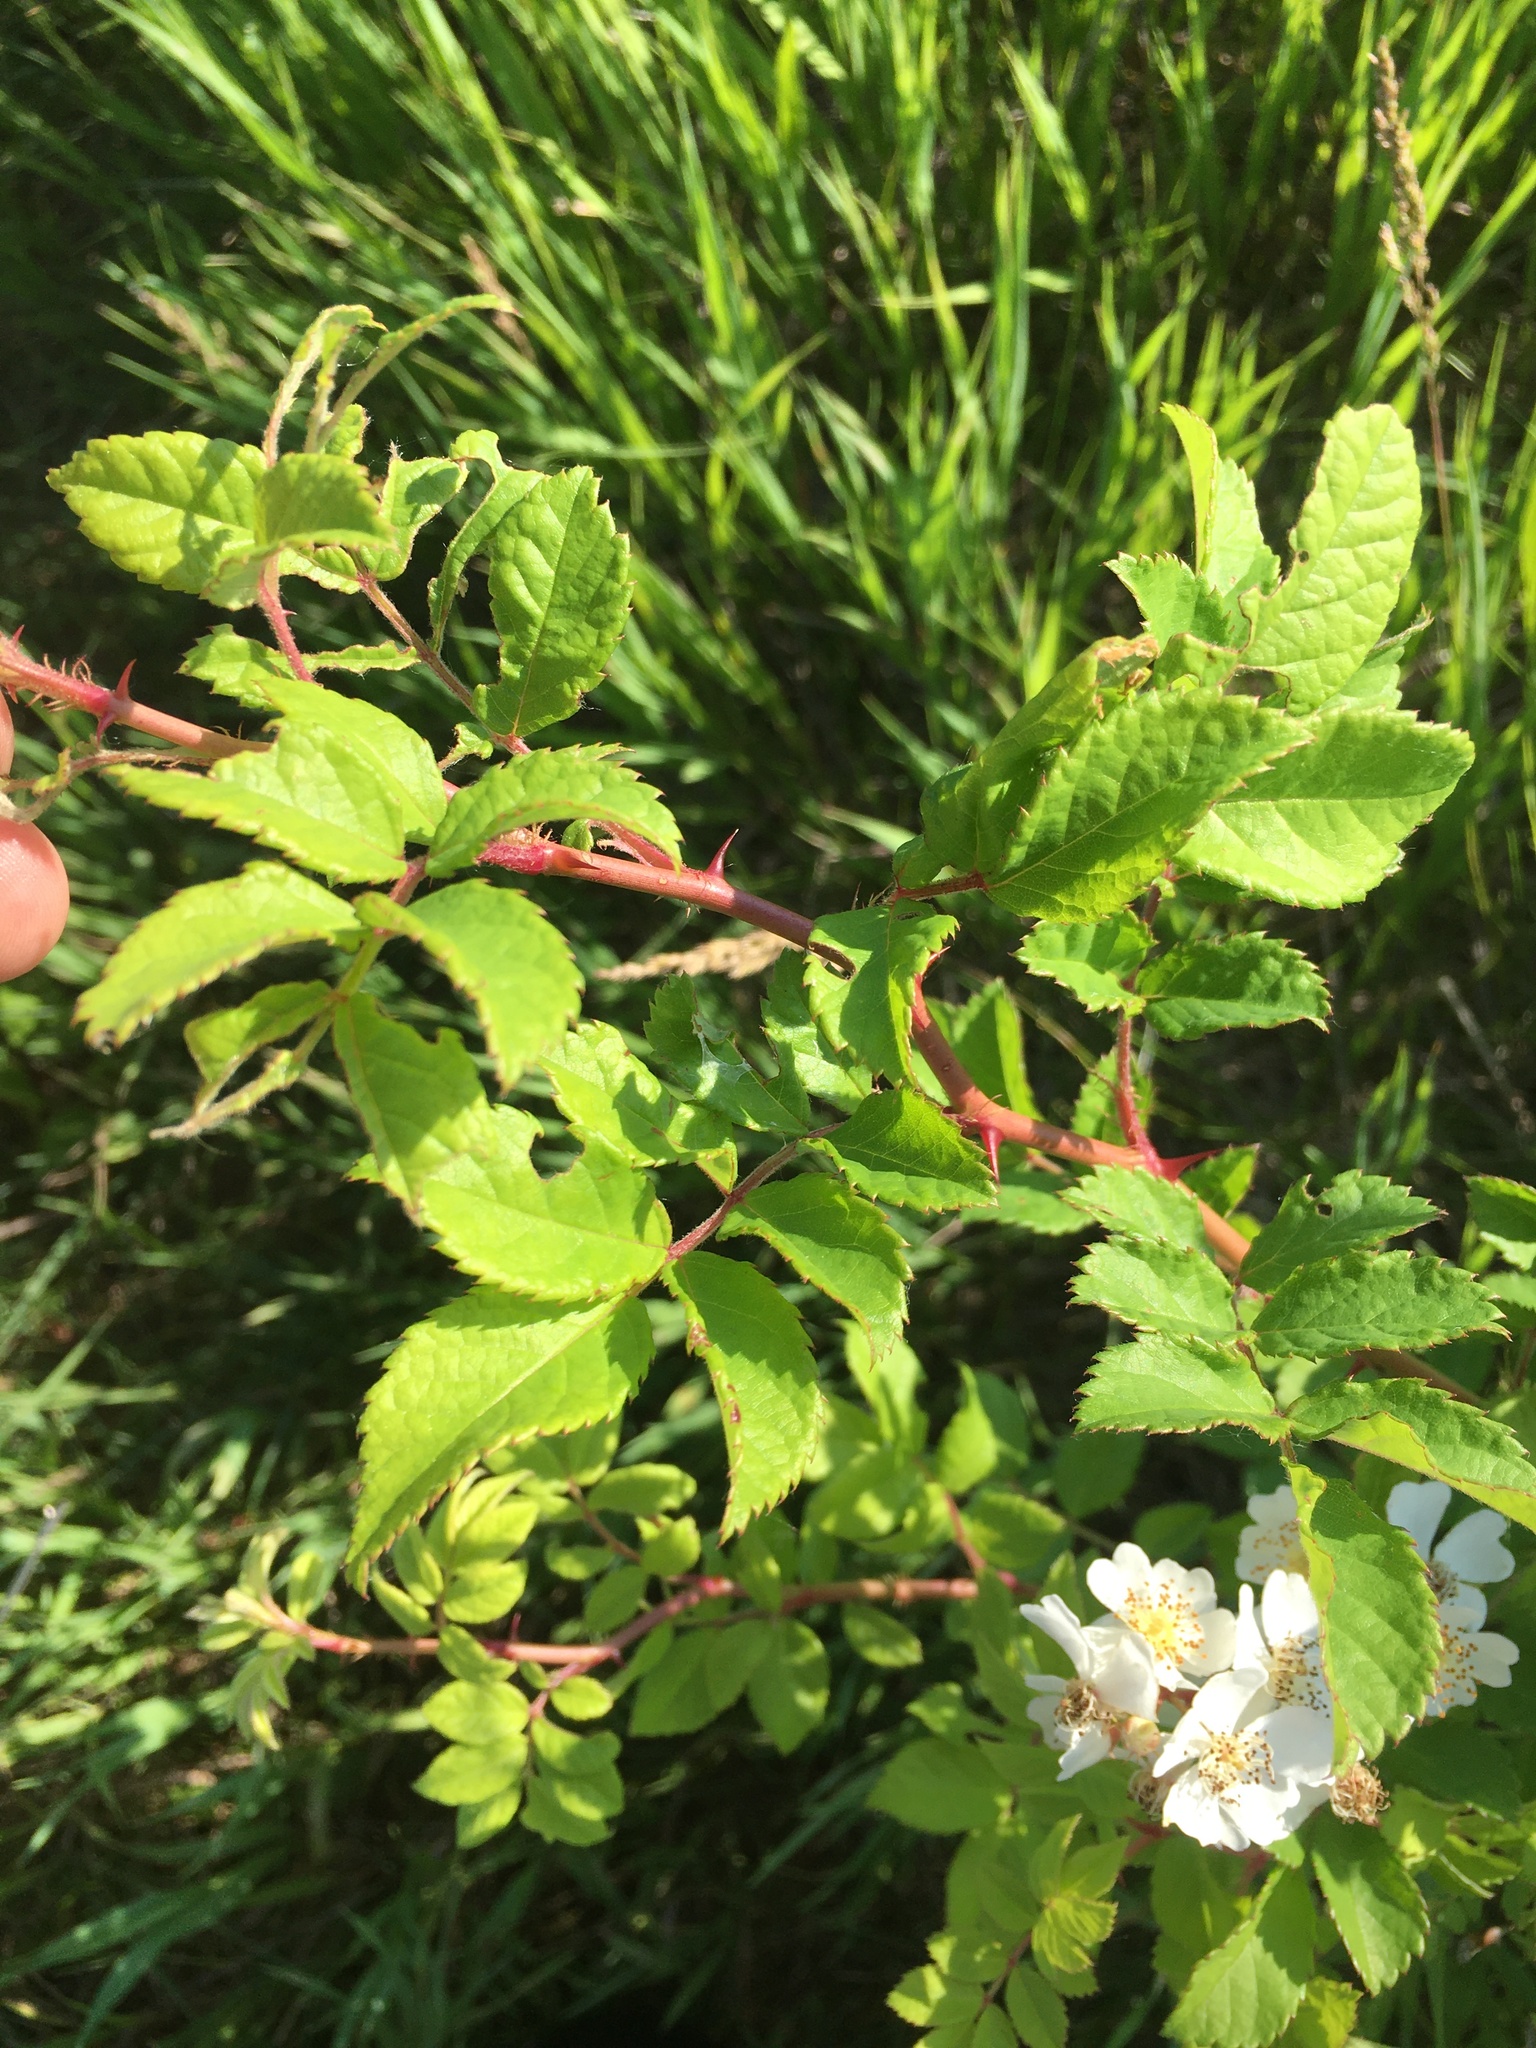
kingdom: Plantae
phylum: Tracheophyta
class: Magnoliopsida
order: Rosales
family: Rosaceae
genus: Rosa
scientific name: Rosa multiflora
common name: Multiflora rose
